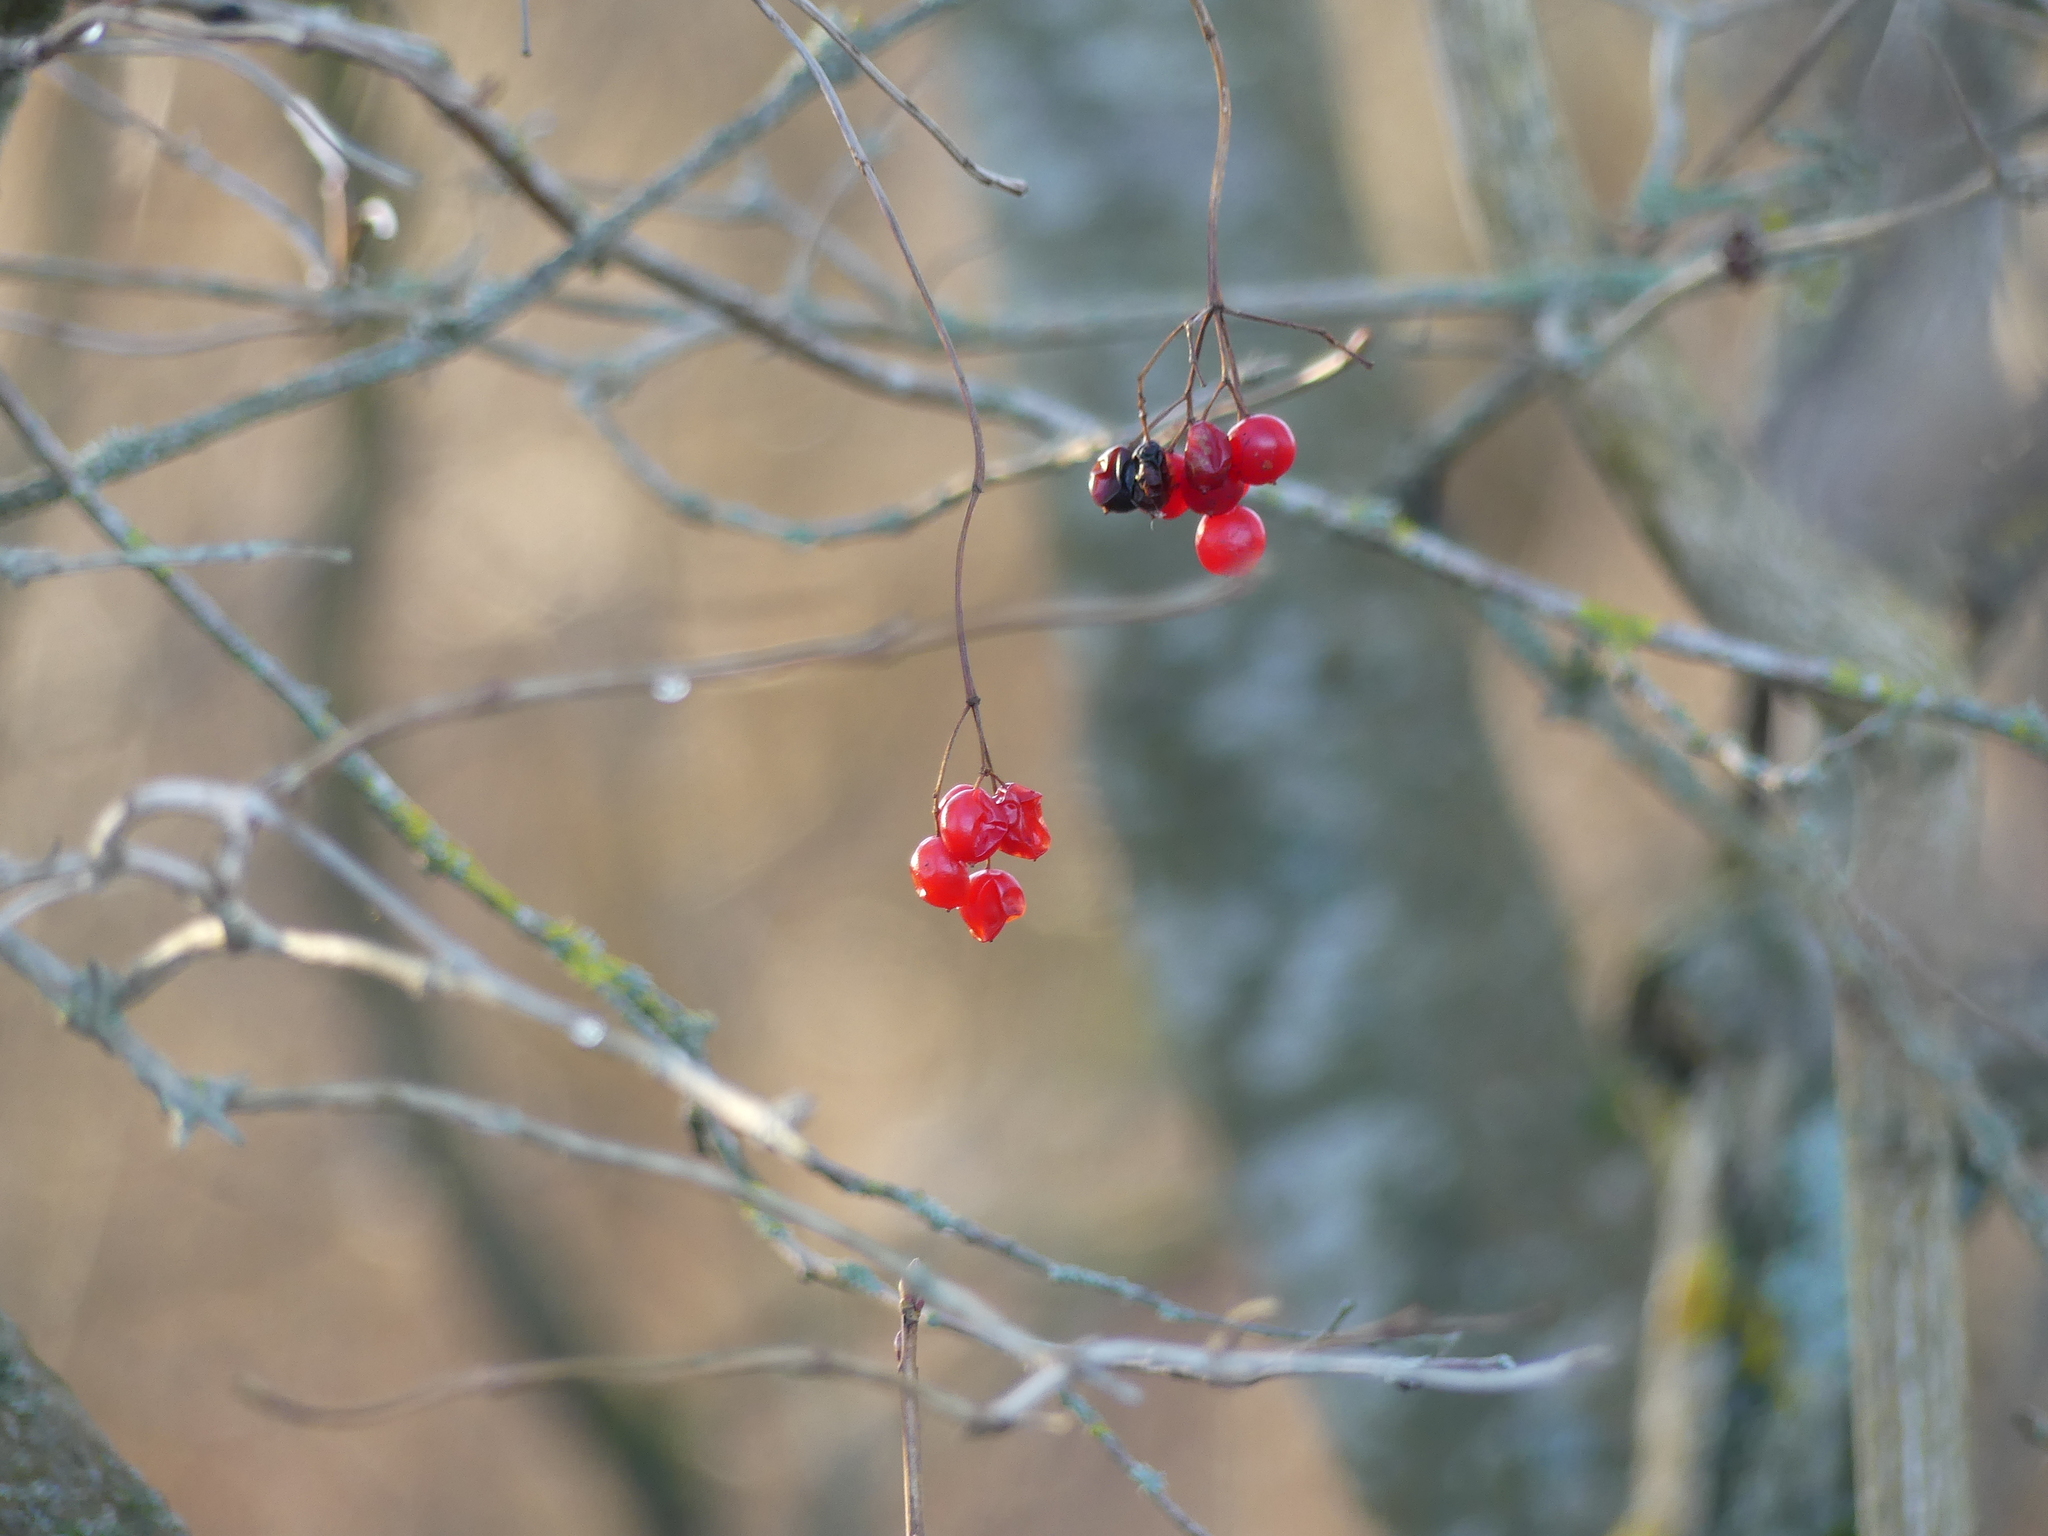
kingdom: Plantae
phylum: Tracheophyta
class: Magnoliopsida
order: Dipsacales
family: Viburnaceae
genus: Viburnum
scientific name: Viburnum opulus
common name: Guelder-rose
